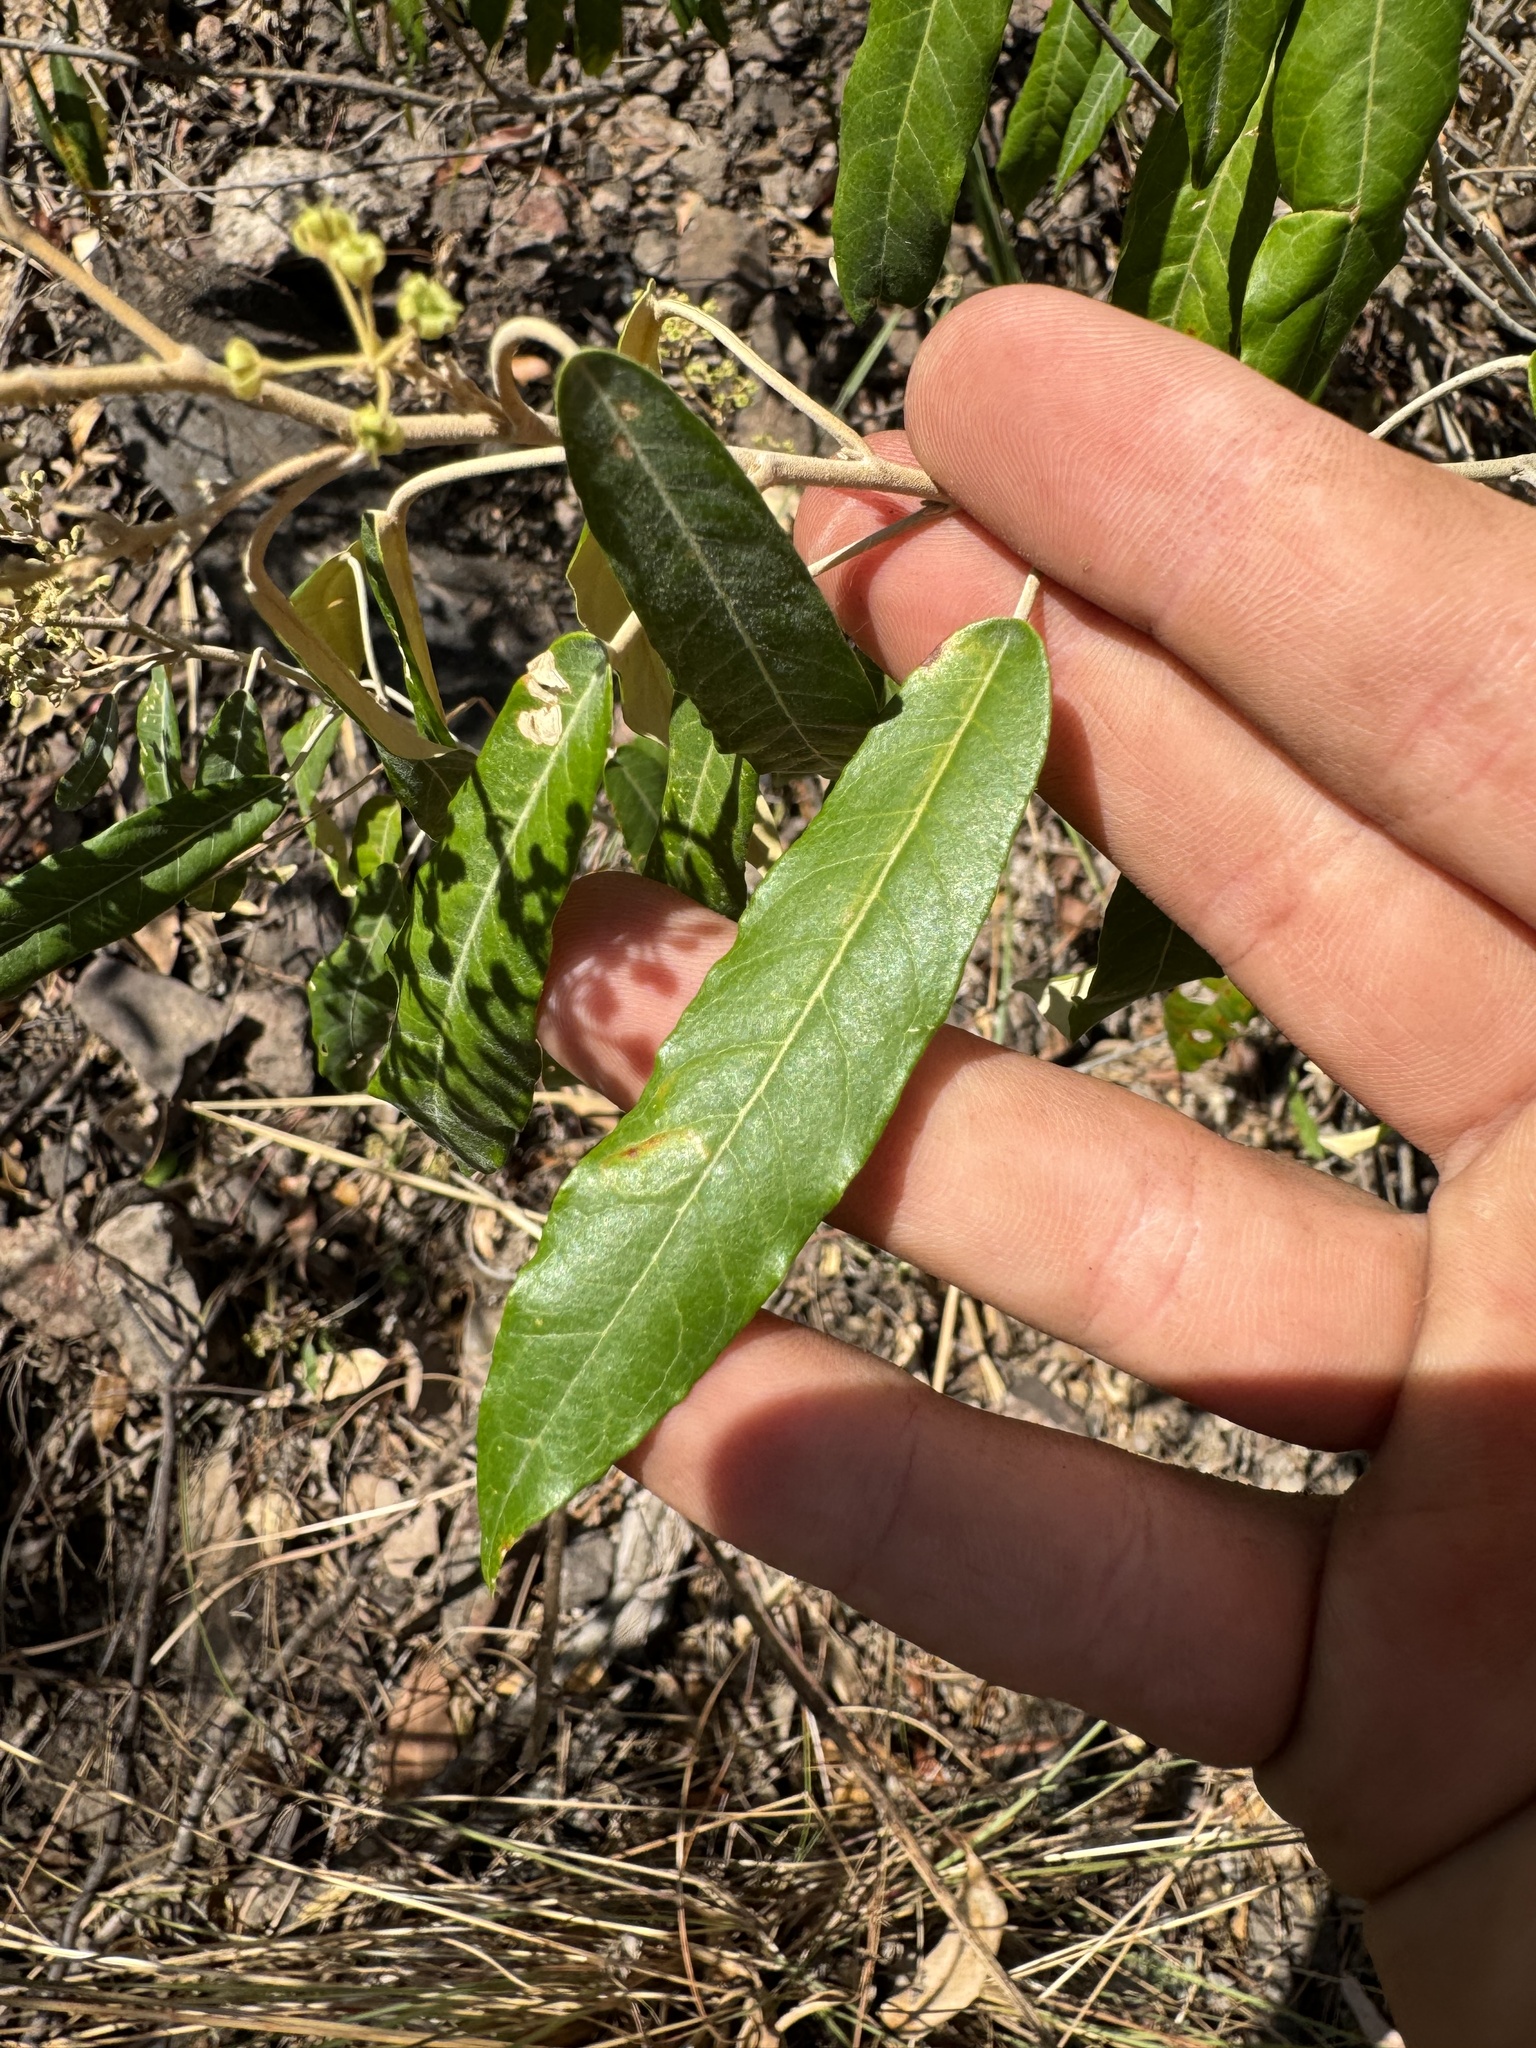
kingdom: Plantae
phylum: Tracheophyta
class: Magnoliopsida
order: Apiales
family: Araliaceae
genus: Astrotricha
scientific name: Astrotricha latifolia
